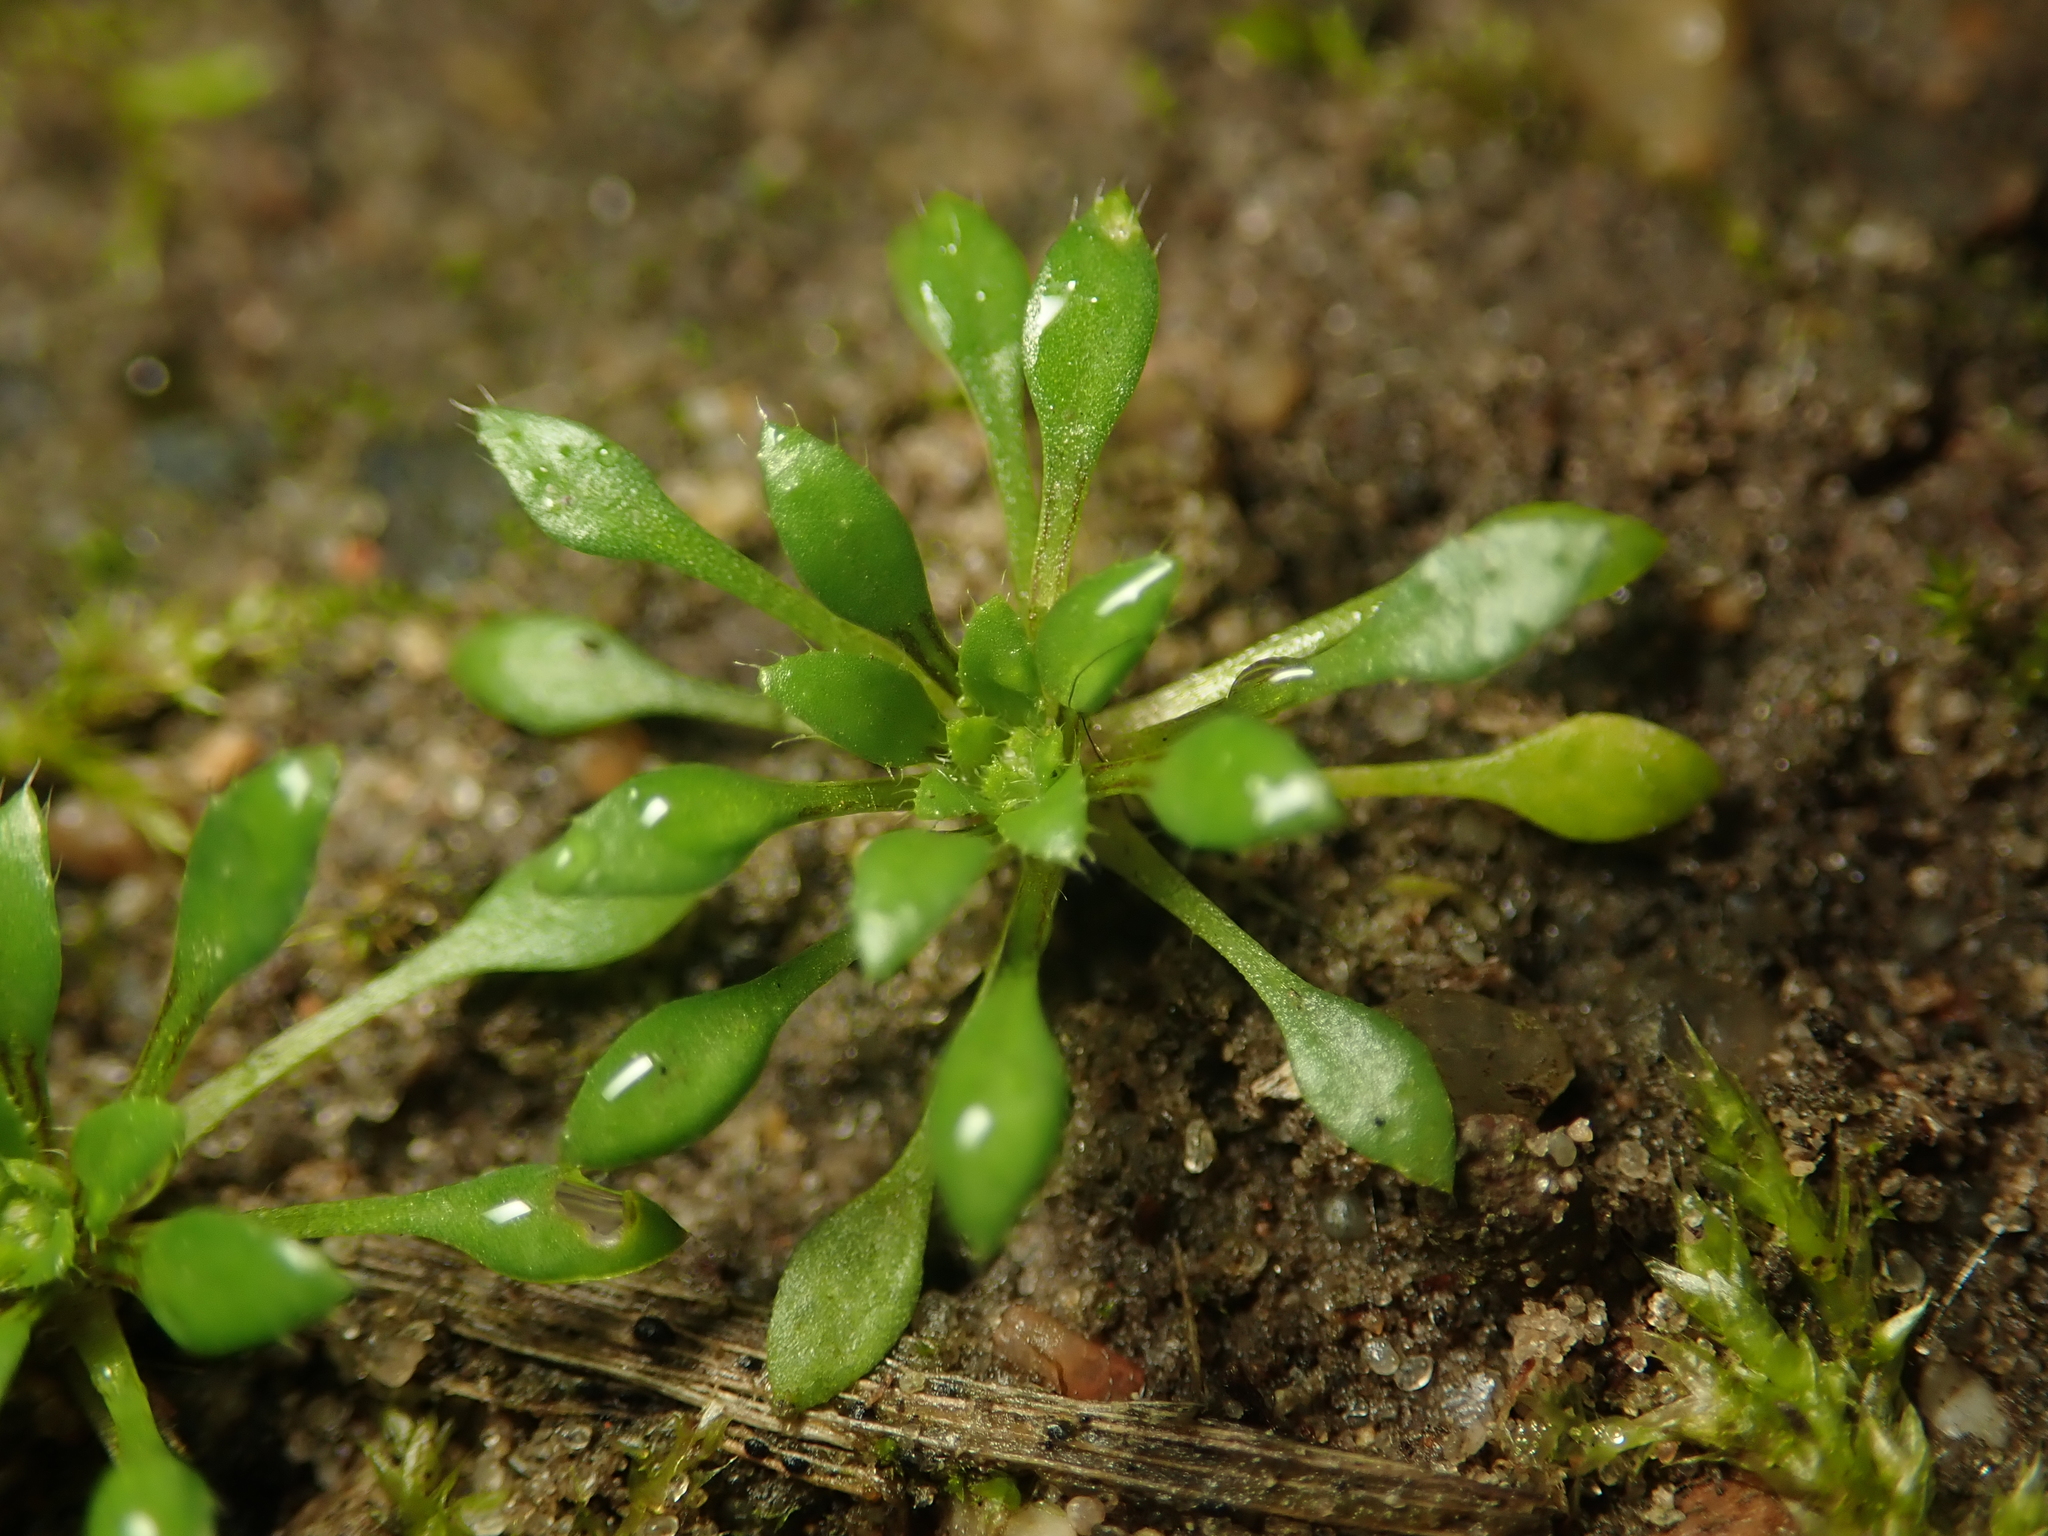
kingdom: Plantae
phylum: Tracheophyta
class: Magnoliopsida
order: Brassicales
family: Brassicaceae
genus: Draba
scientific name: Draba verna
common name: Spring draba
